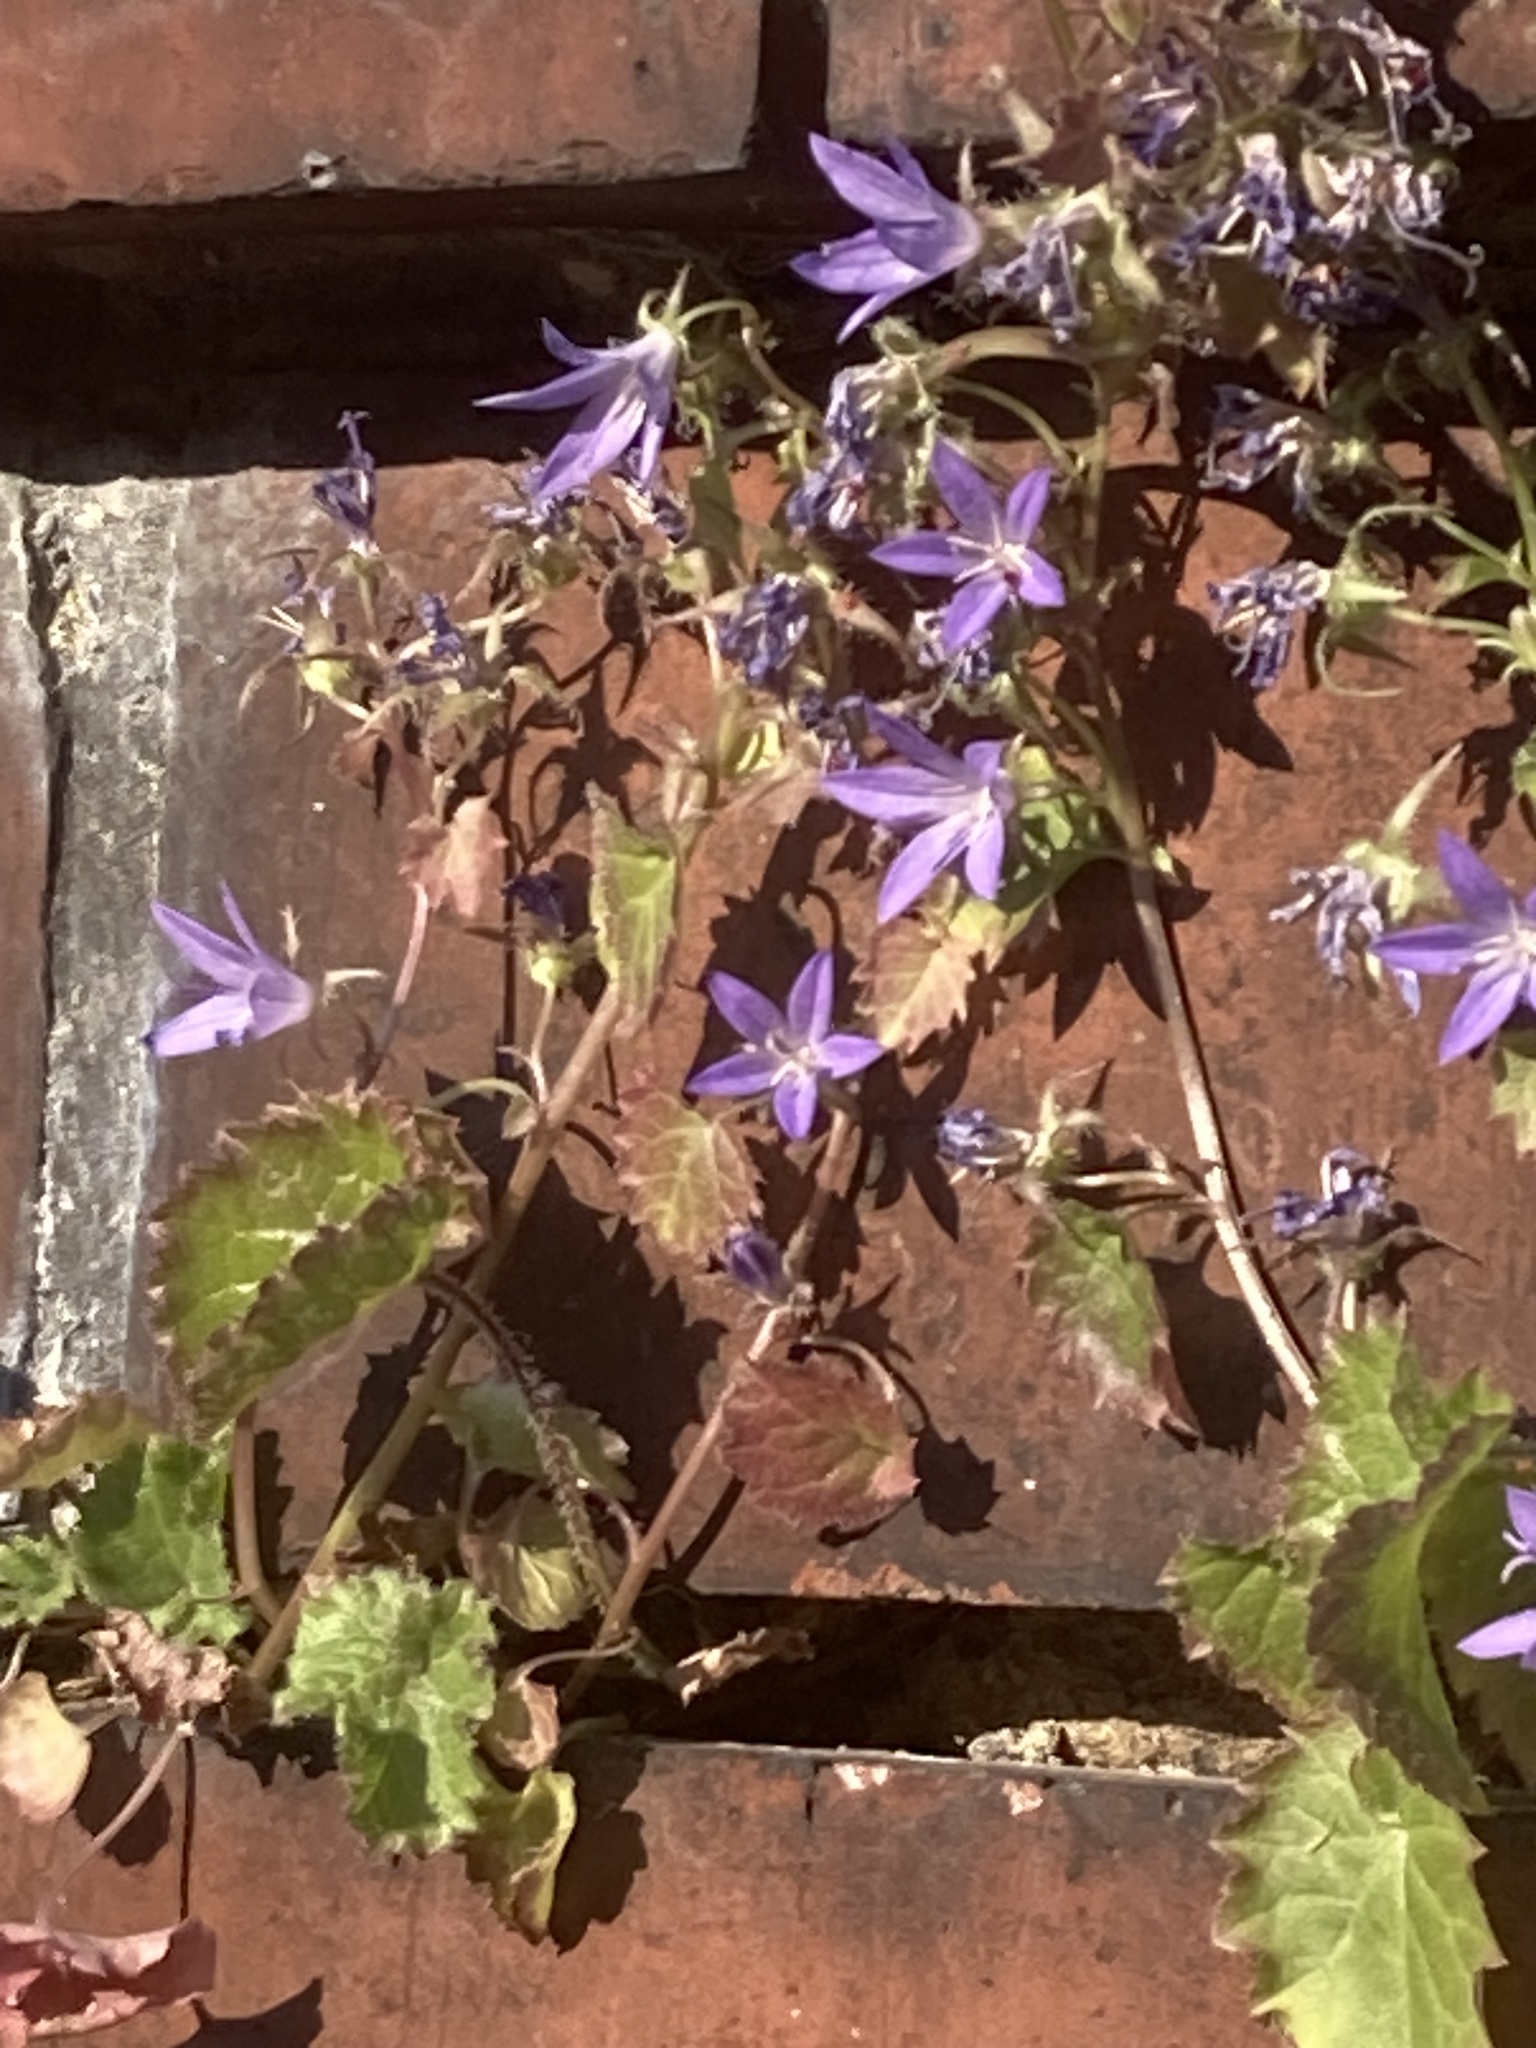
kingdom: Plantae
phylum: Tracheophyta
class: Magnoliopsida
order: Asterales
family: Campanulaceae
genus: Campanula
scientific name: Campanula poscharskyana
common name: Trailing bellflower
